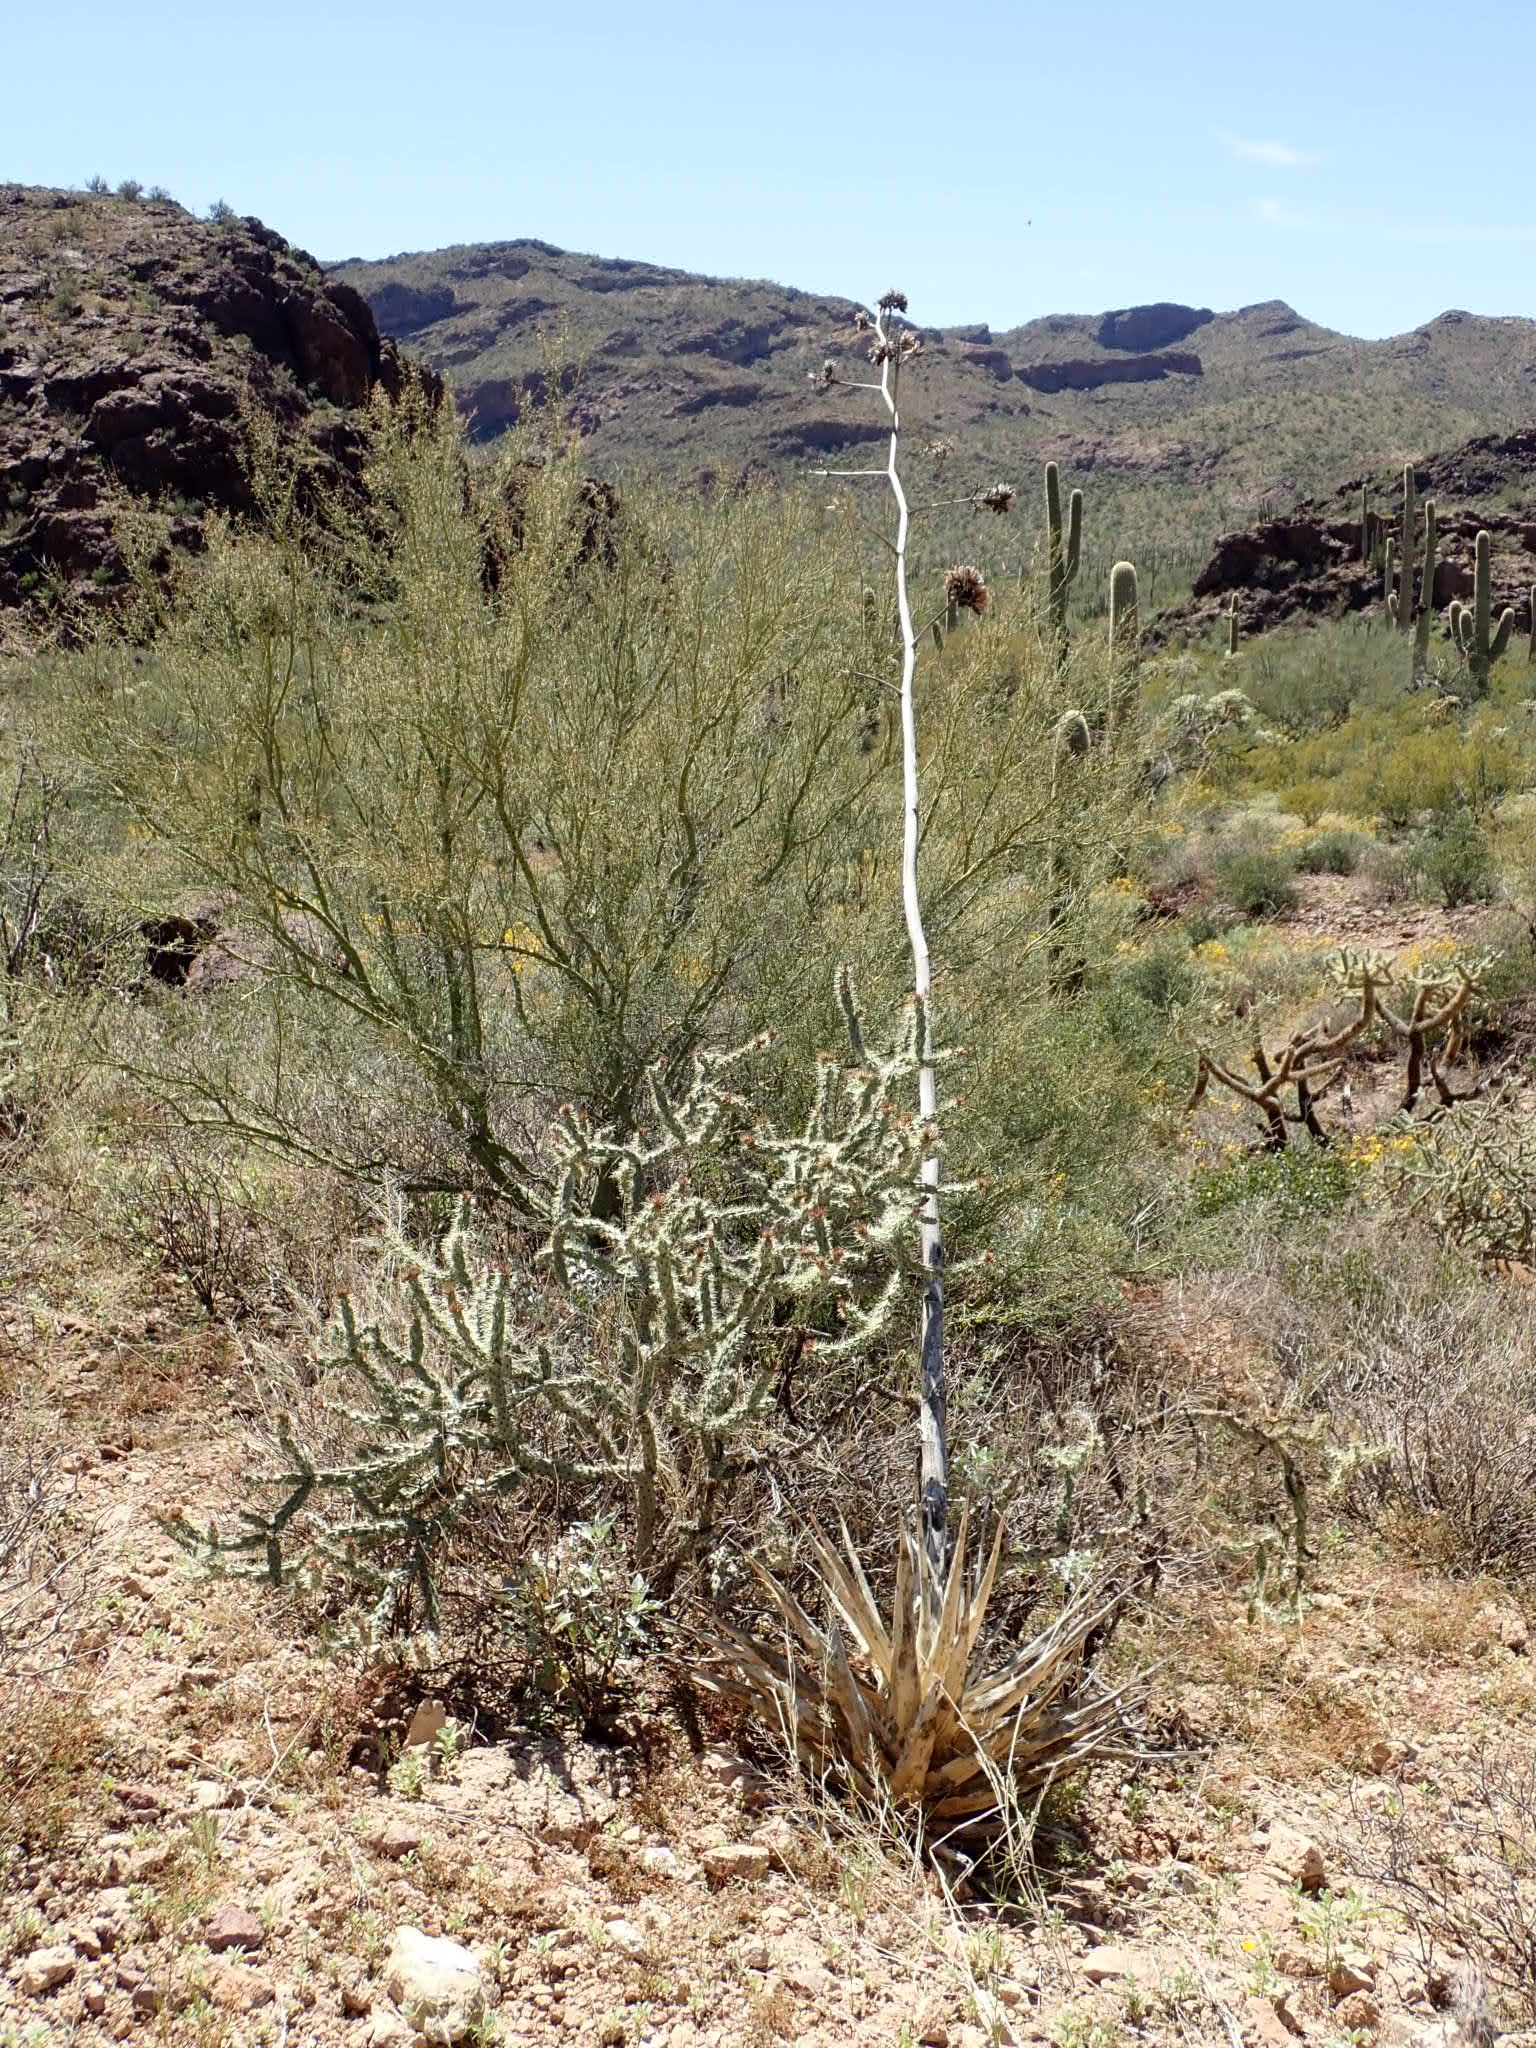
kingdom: Plantae
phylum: Tracheophyta
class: Liliopsida
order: Asparagales
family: Asparagaceae
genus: Agave
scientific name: Agave simplex
